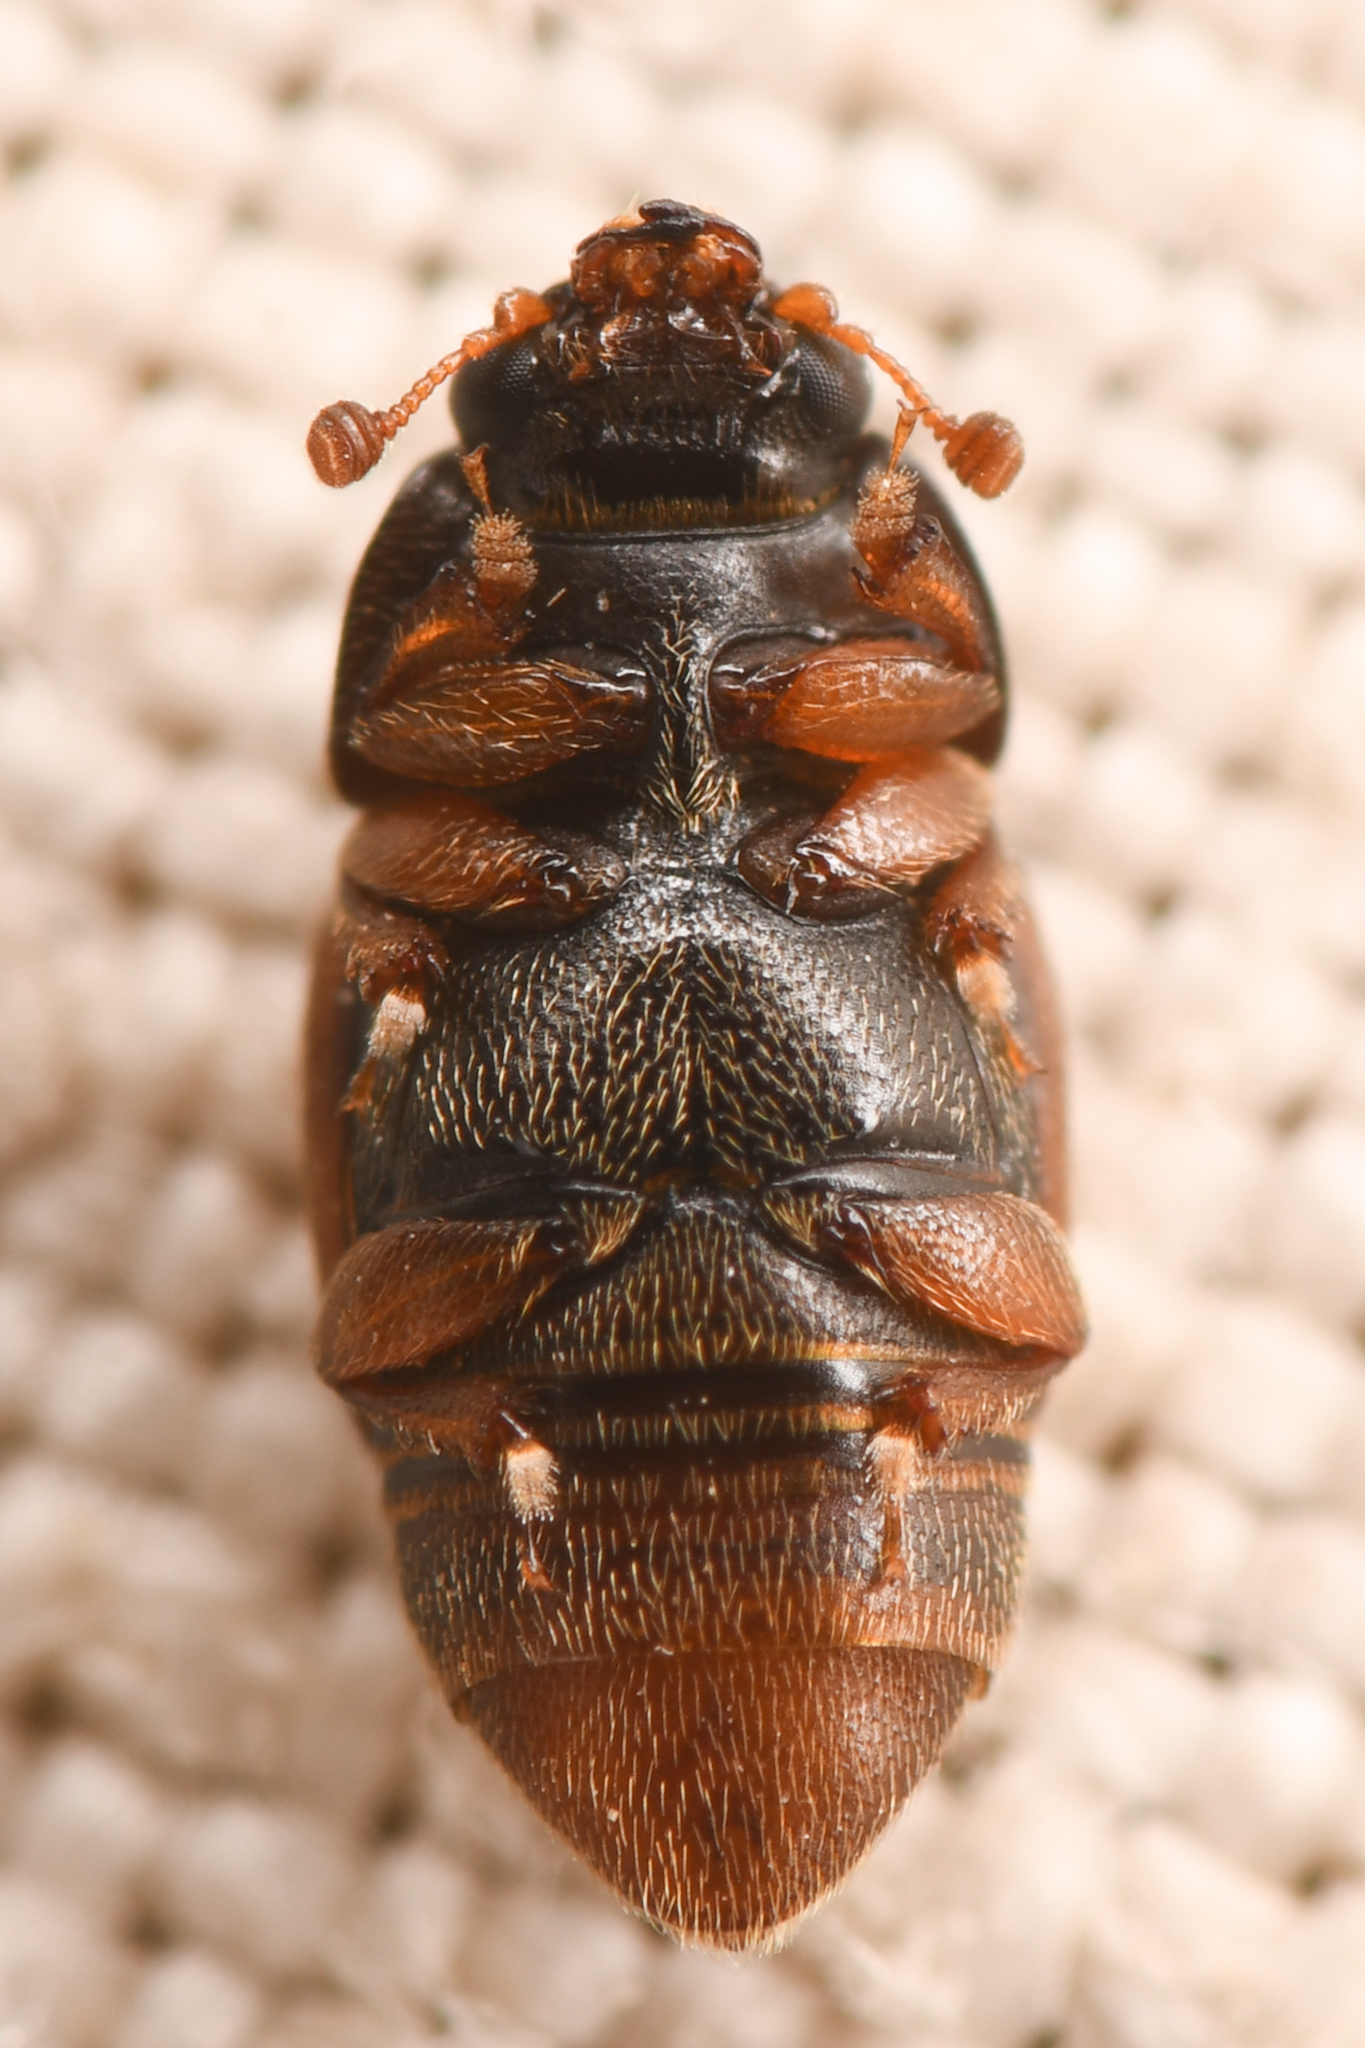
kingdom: Animalia
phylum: Arthropoda
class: Insecta
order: Coleoptera
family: Nitidulidae
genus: Nitops
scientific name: Nitops pallipennis
